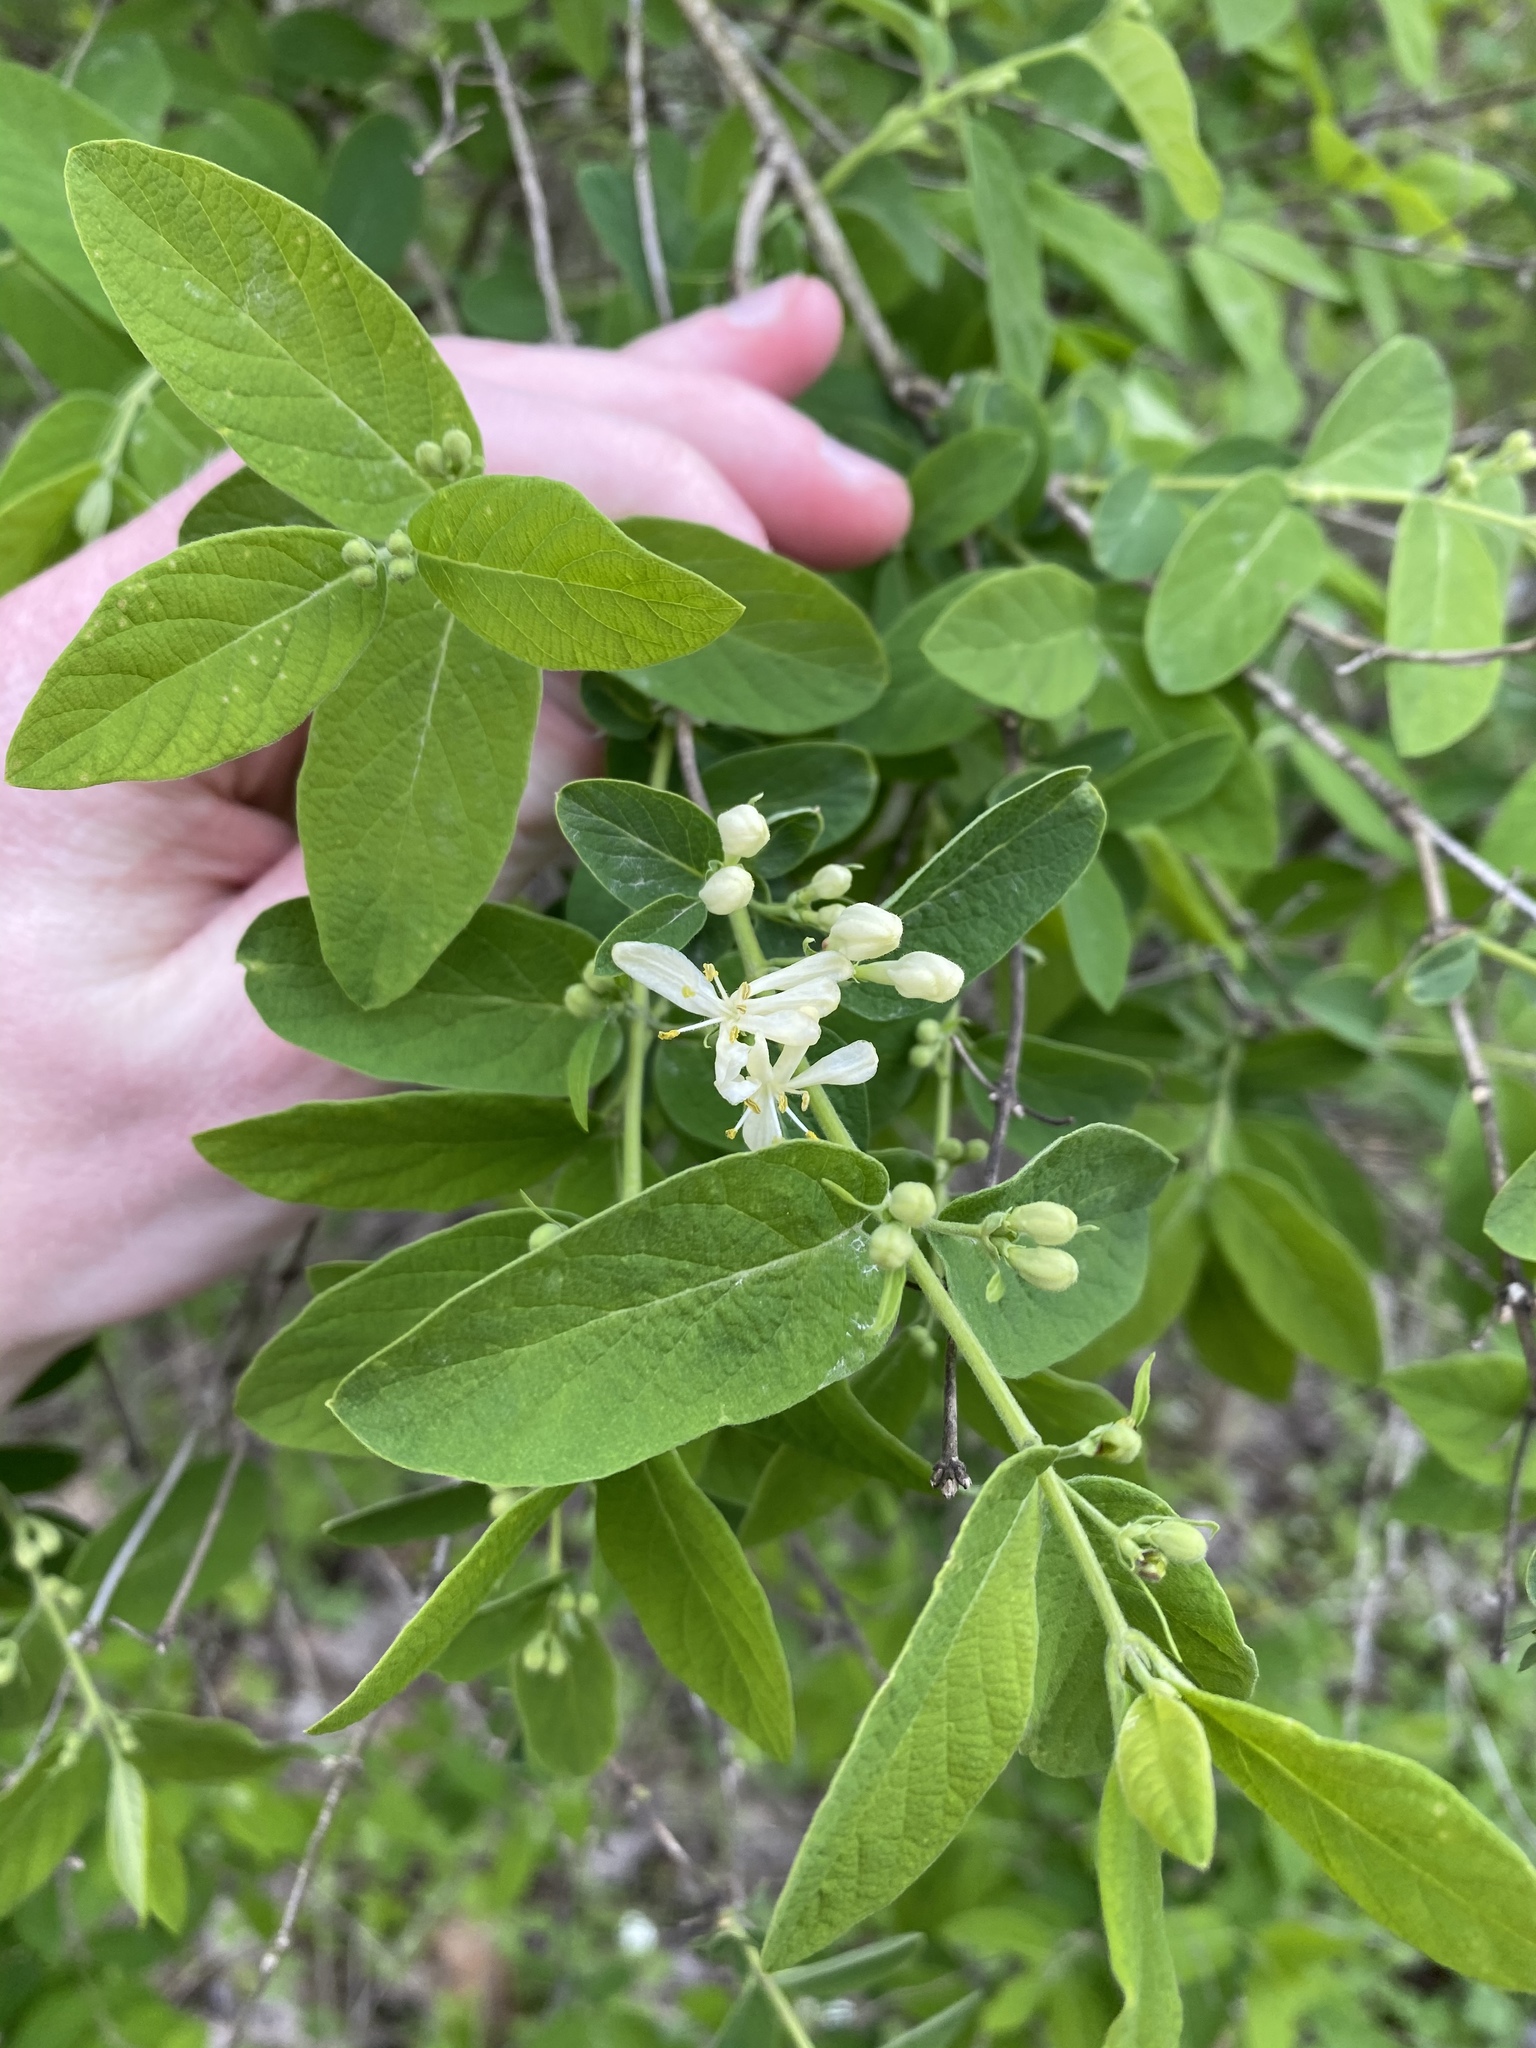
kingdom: Plantae
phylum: Tracheophyta
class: Magnoliopsida
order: Dipsacales
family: Caprifoliaceae
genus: Lonicera
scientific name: Lonicera morrowii
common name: Morrow's honeysuckle
